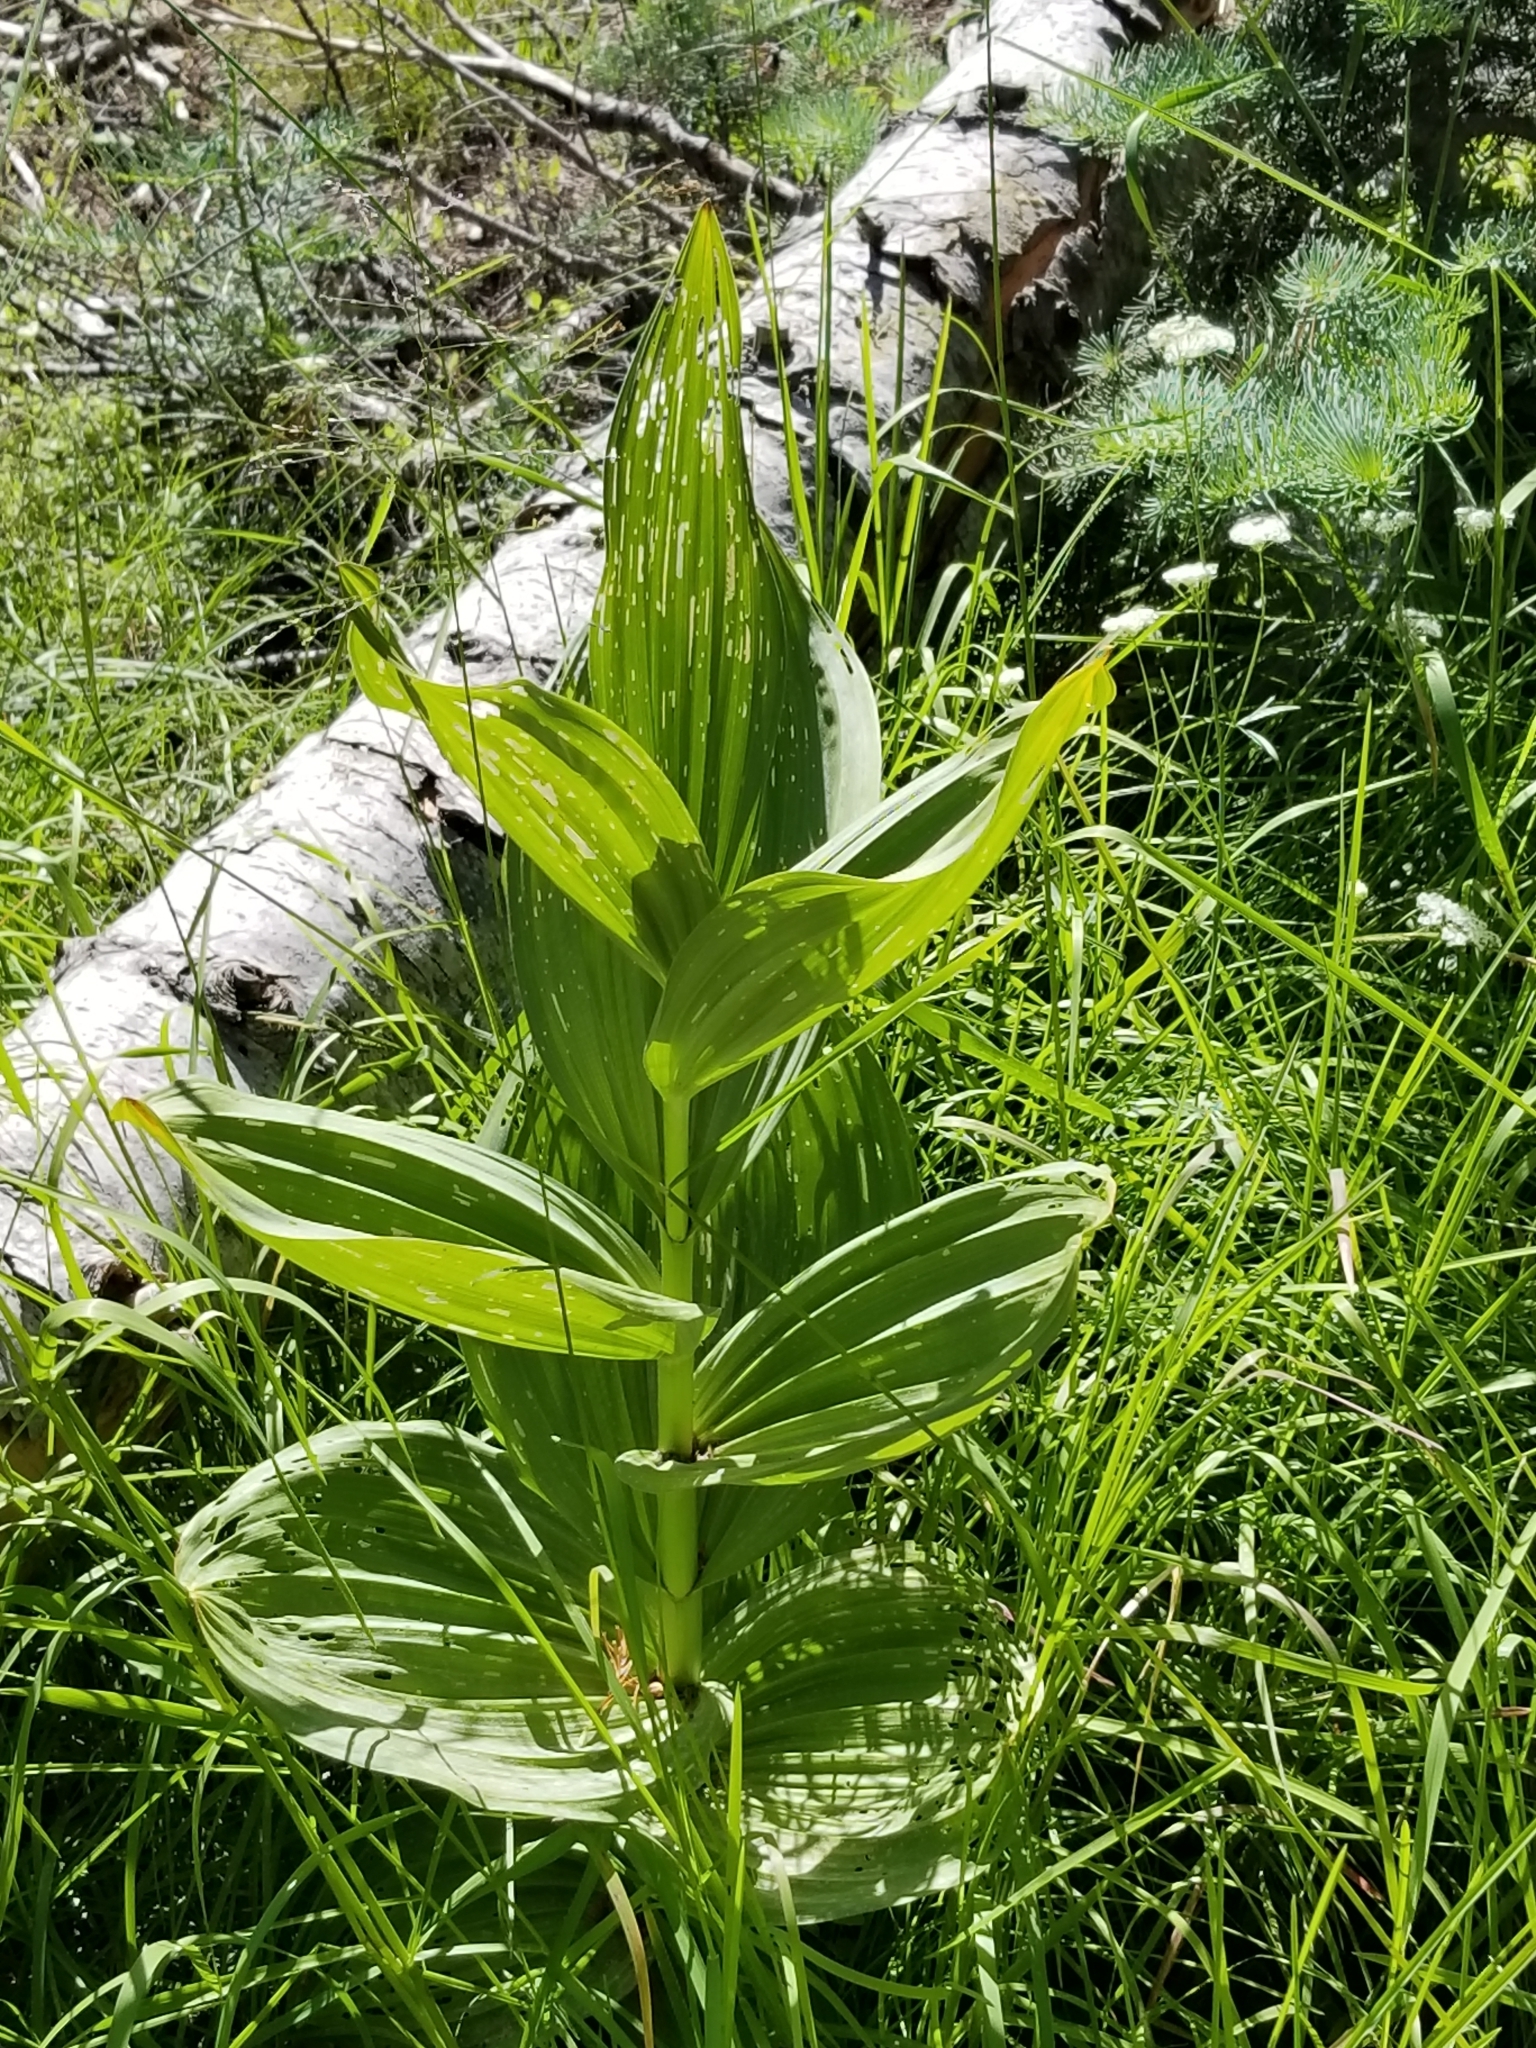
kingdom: Plantae
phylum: Tracheophyta
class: Liliopsida
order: Liliales
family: Melanthiaceae
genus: Veratrum
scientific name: Veratrum californicum
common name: California veratrum
